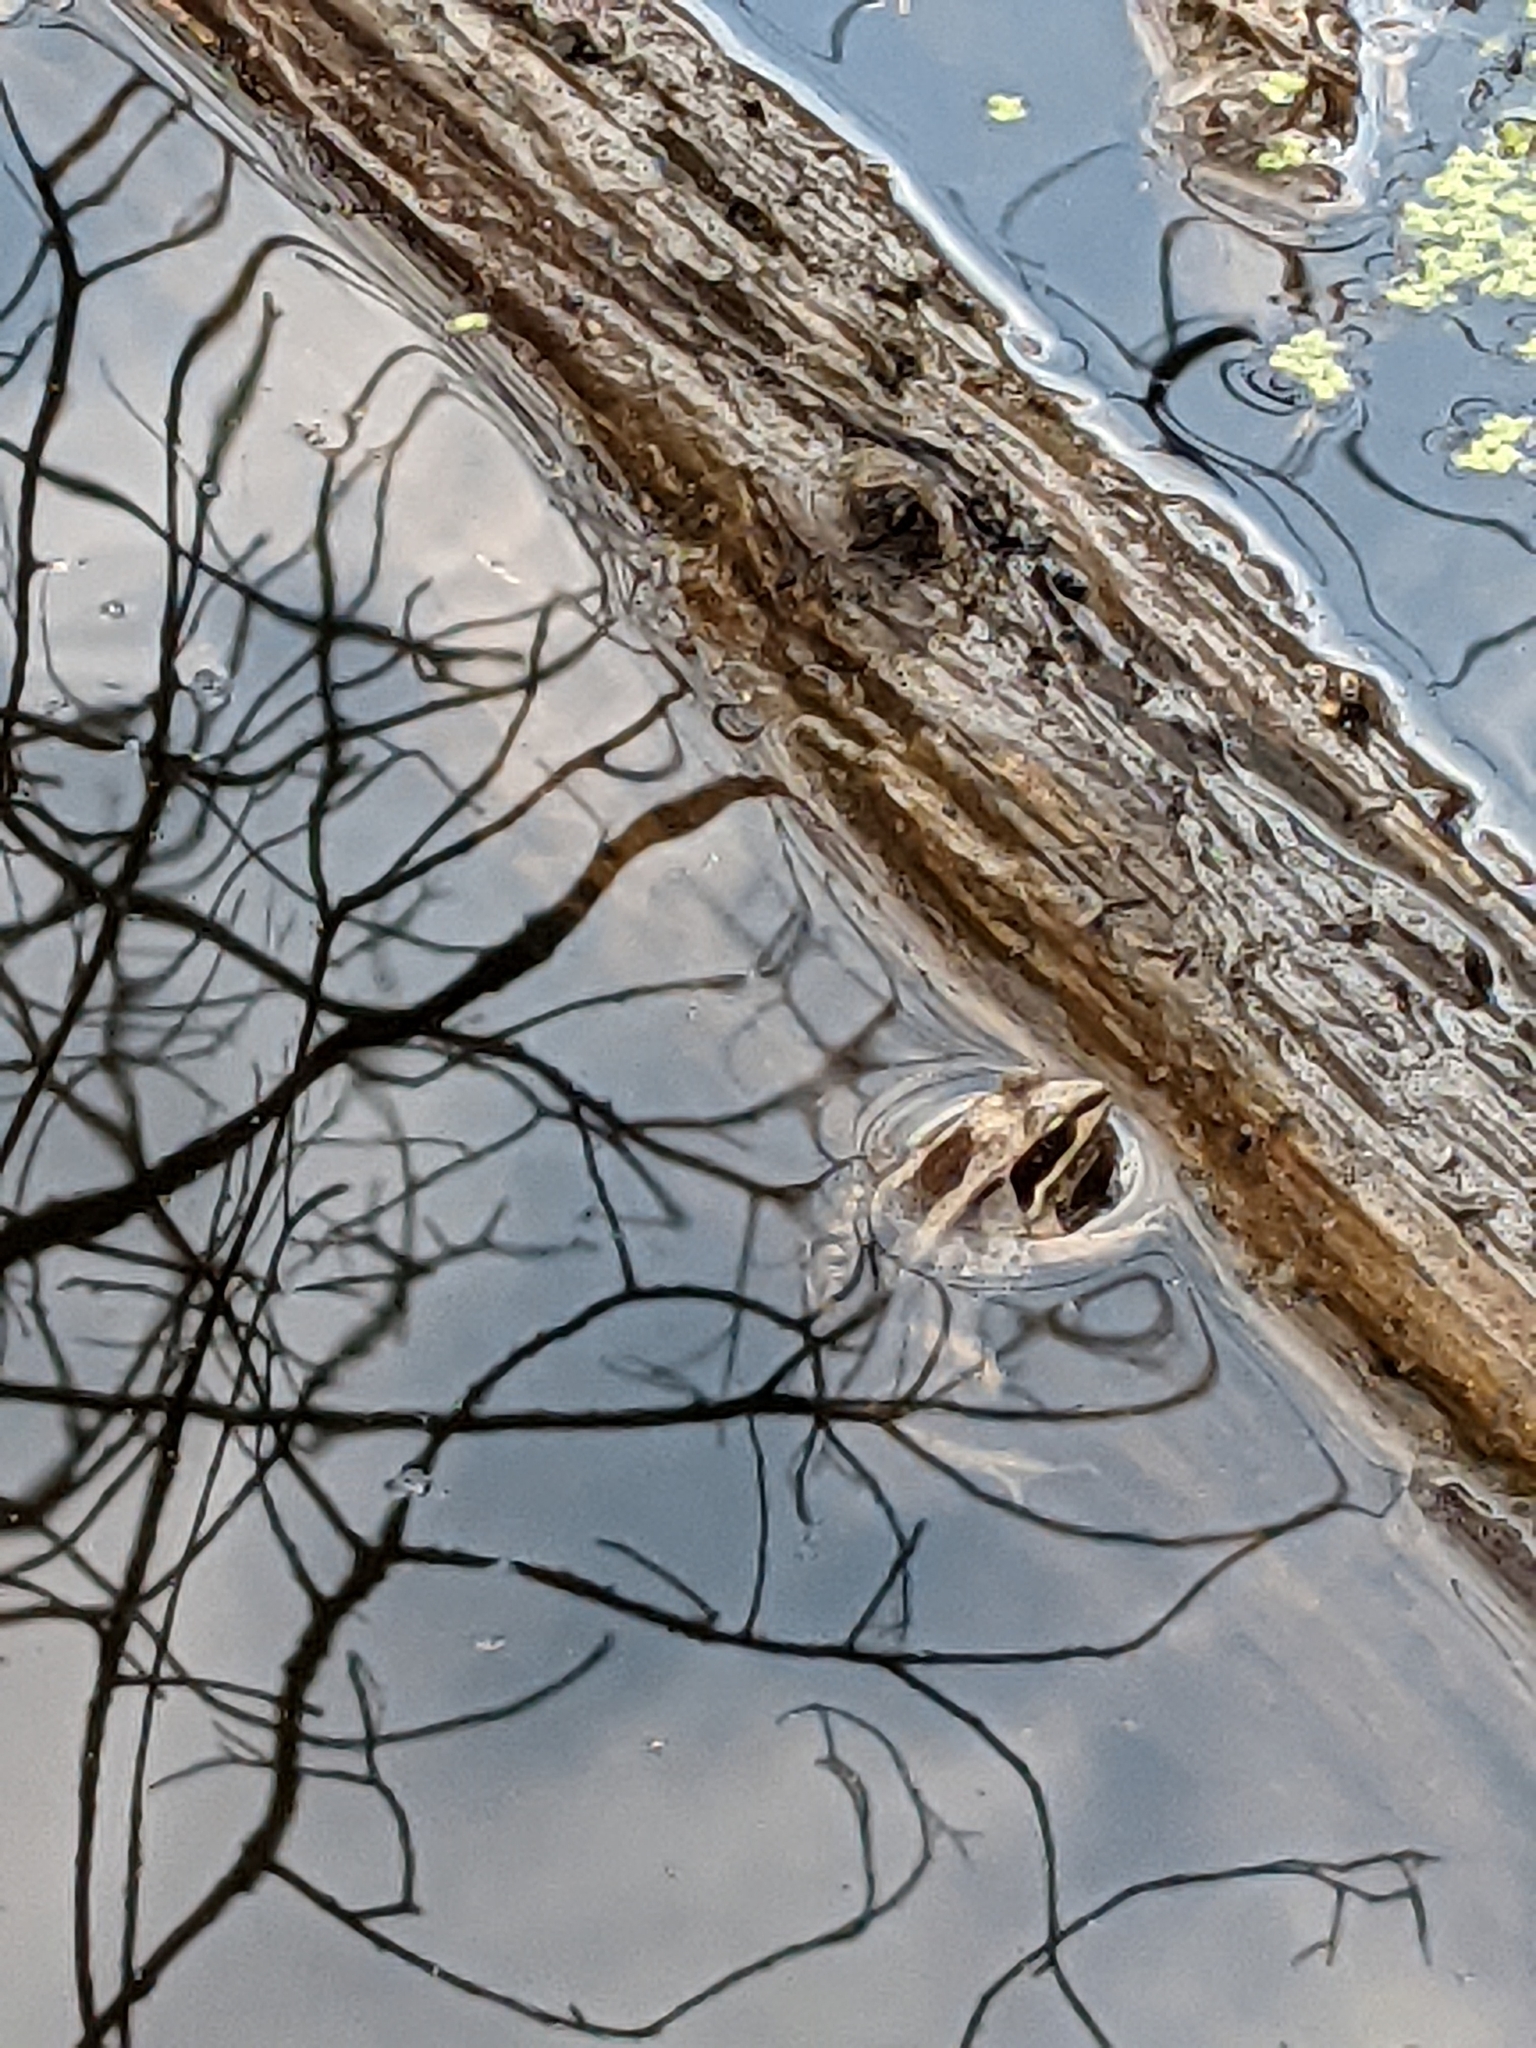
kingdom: Animalia
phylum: Chordata
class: Amphibia
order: Anura
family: Ranidae
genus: Lithobates
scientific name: Lithobates sylvaticus
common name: Wood frog
